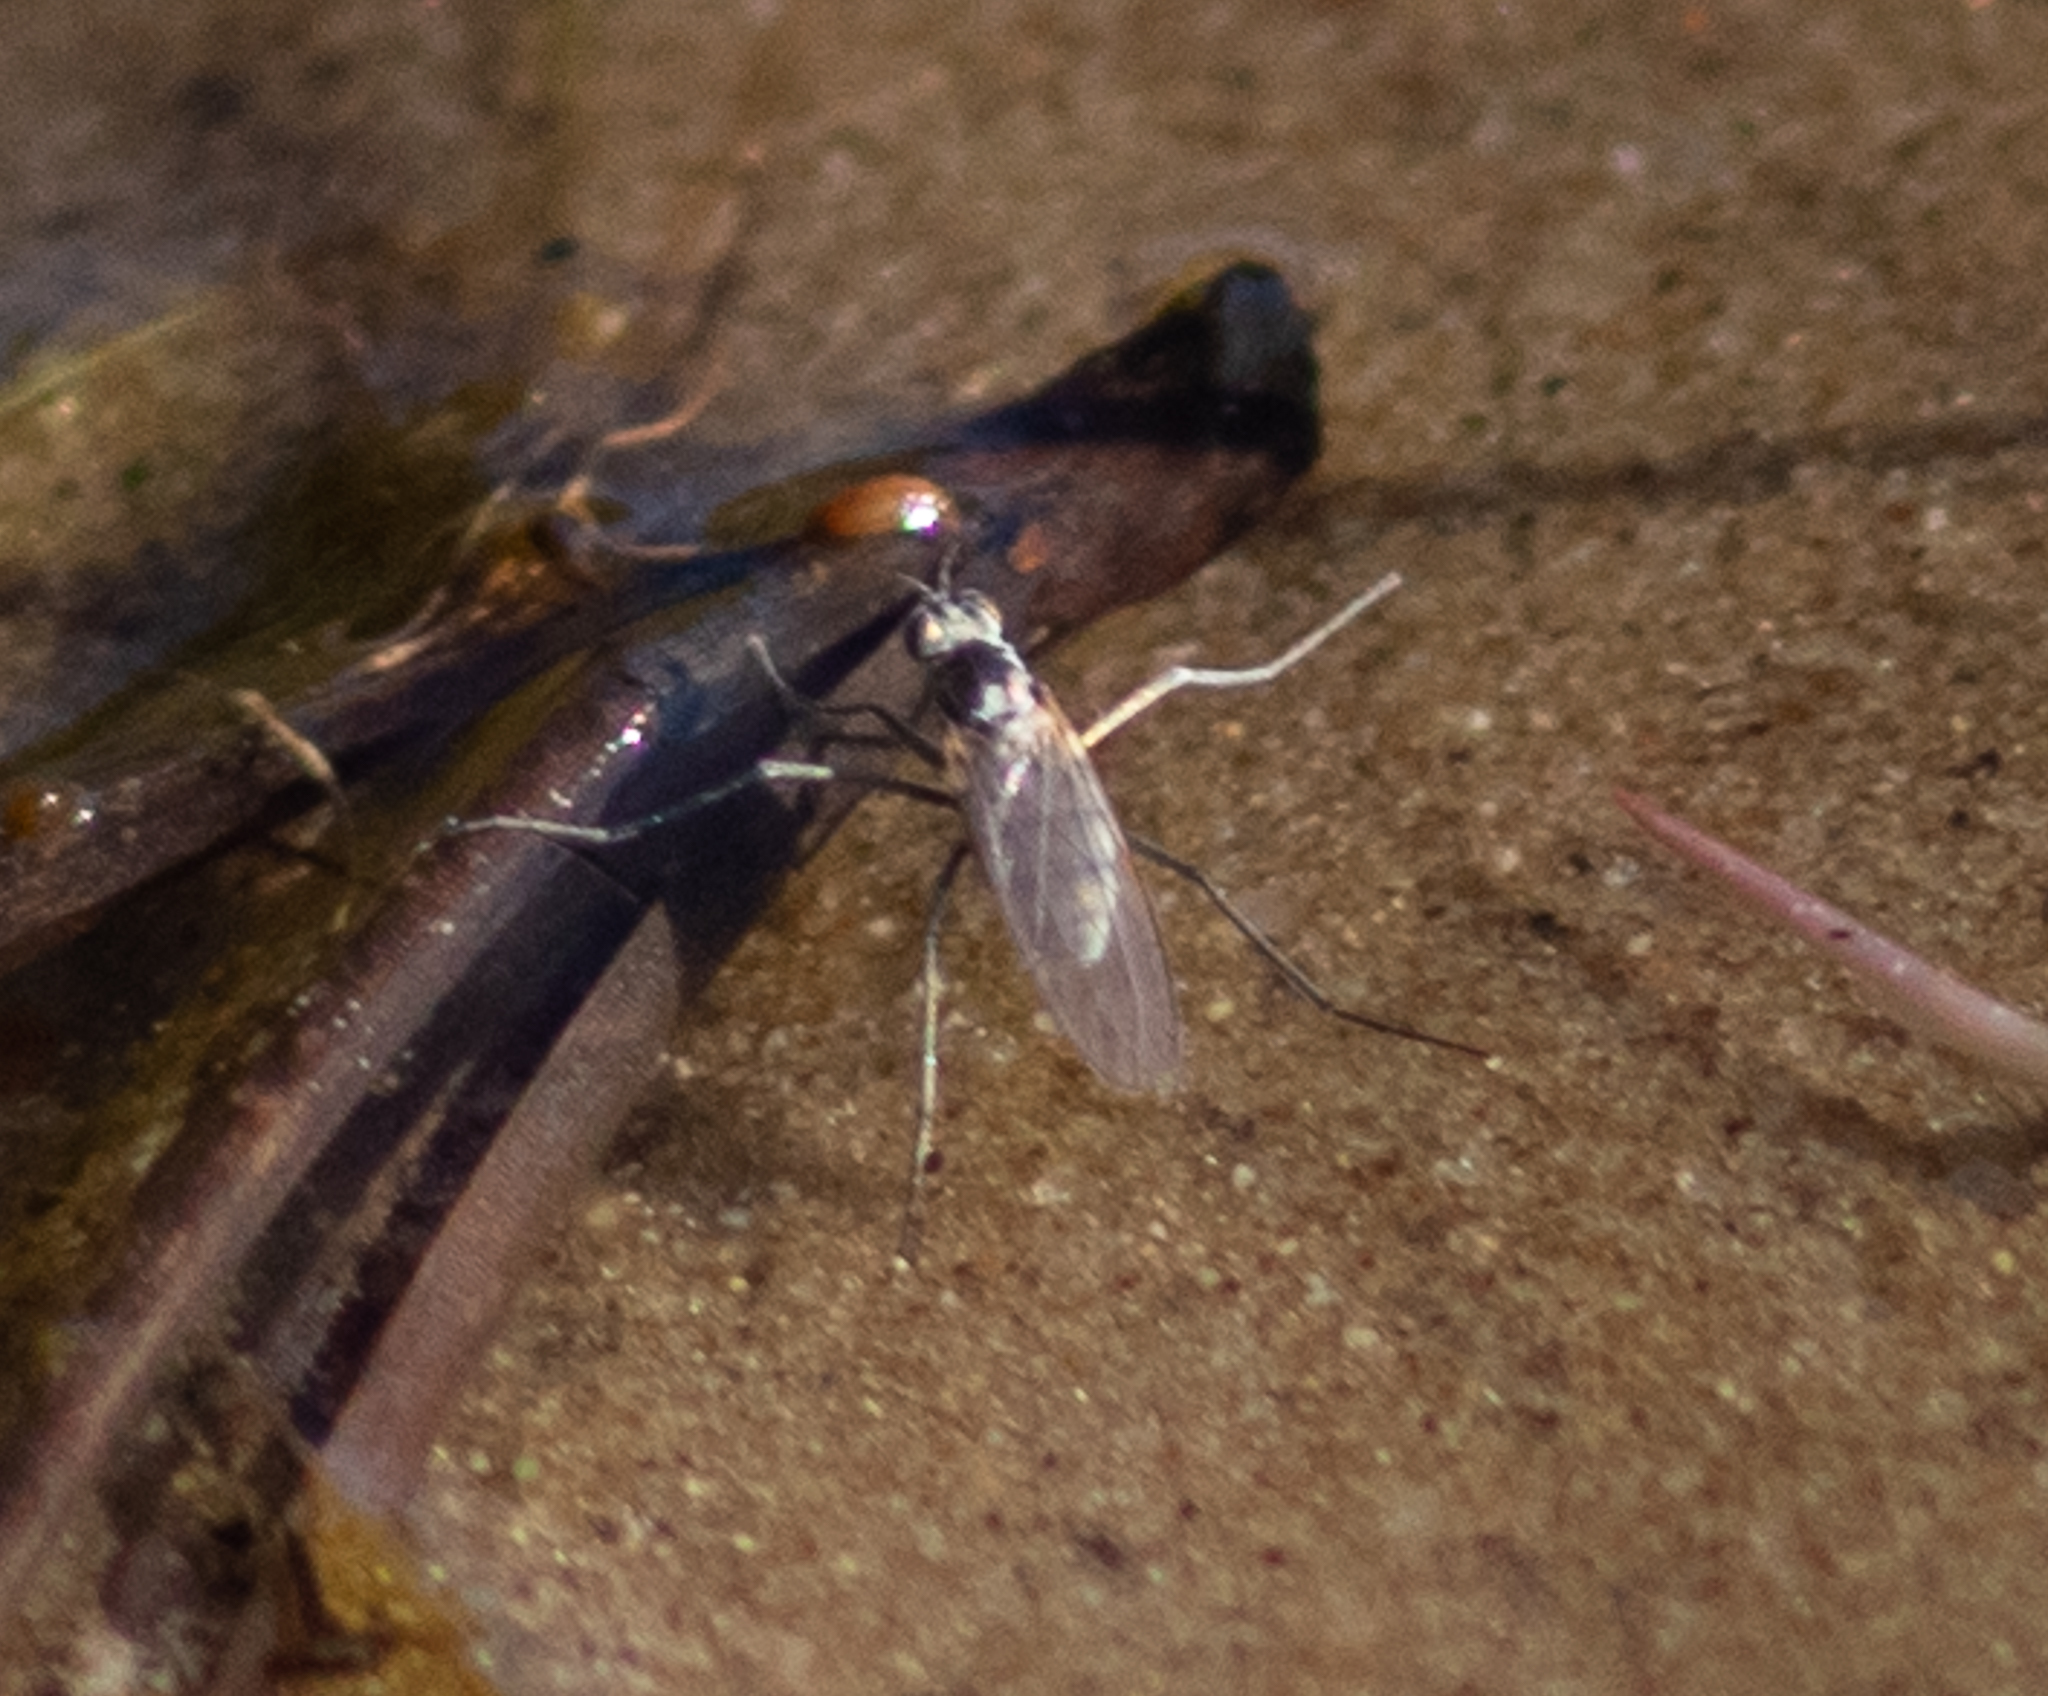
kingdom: Animalia
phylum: Arthropoda
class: Insecta
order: Diptera
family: Dolichopodidae
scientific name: Dolichopodidae
